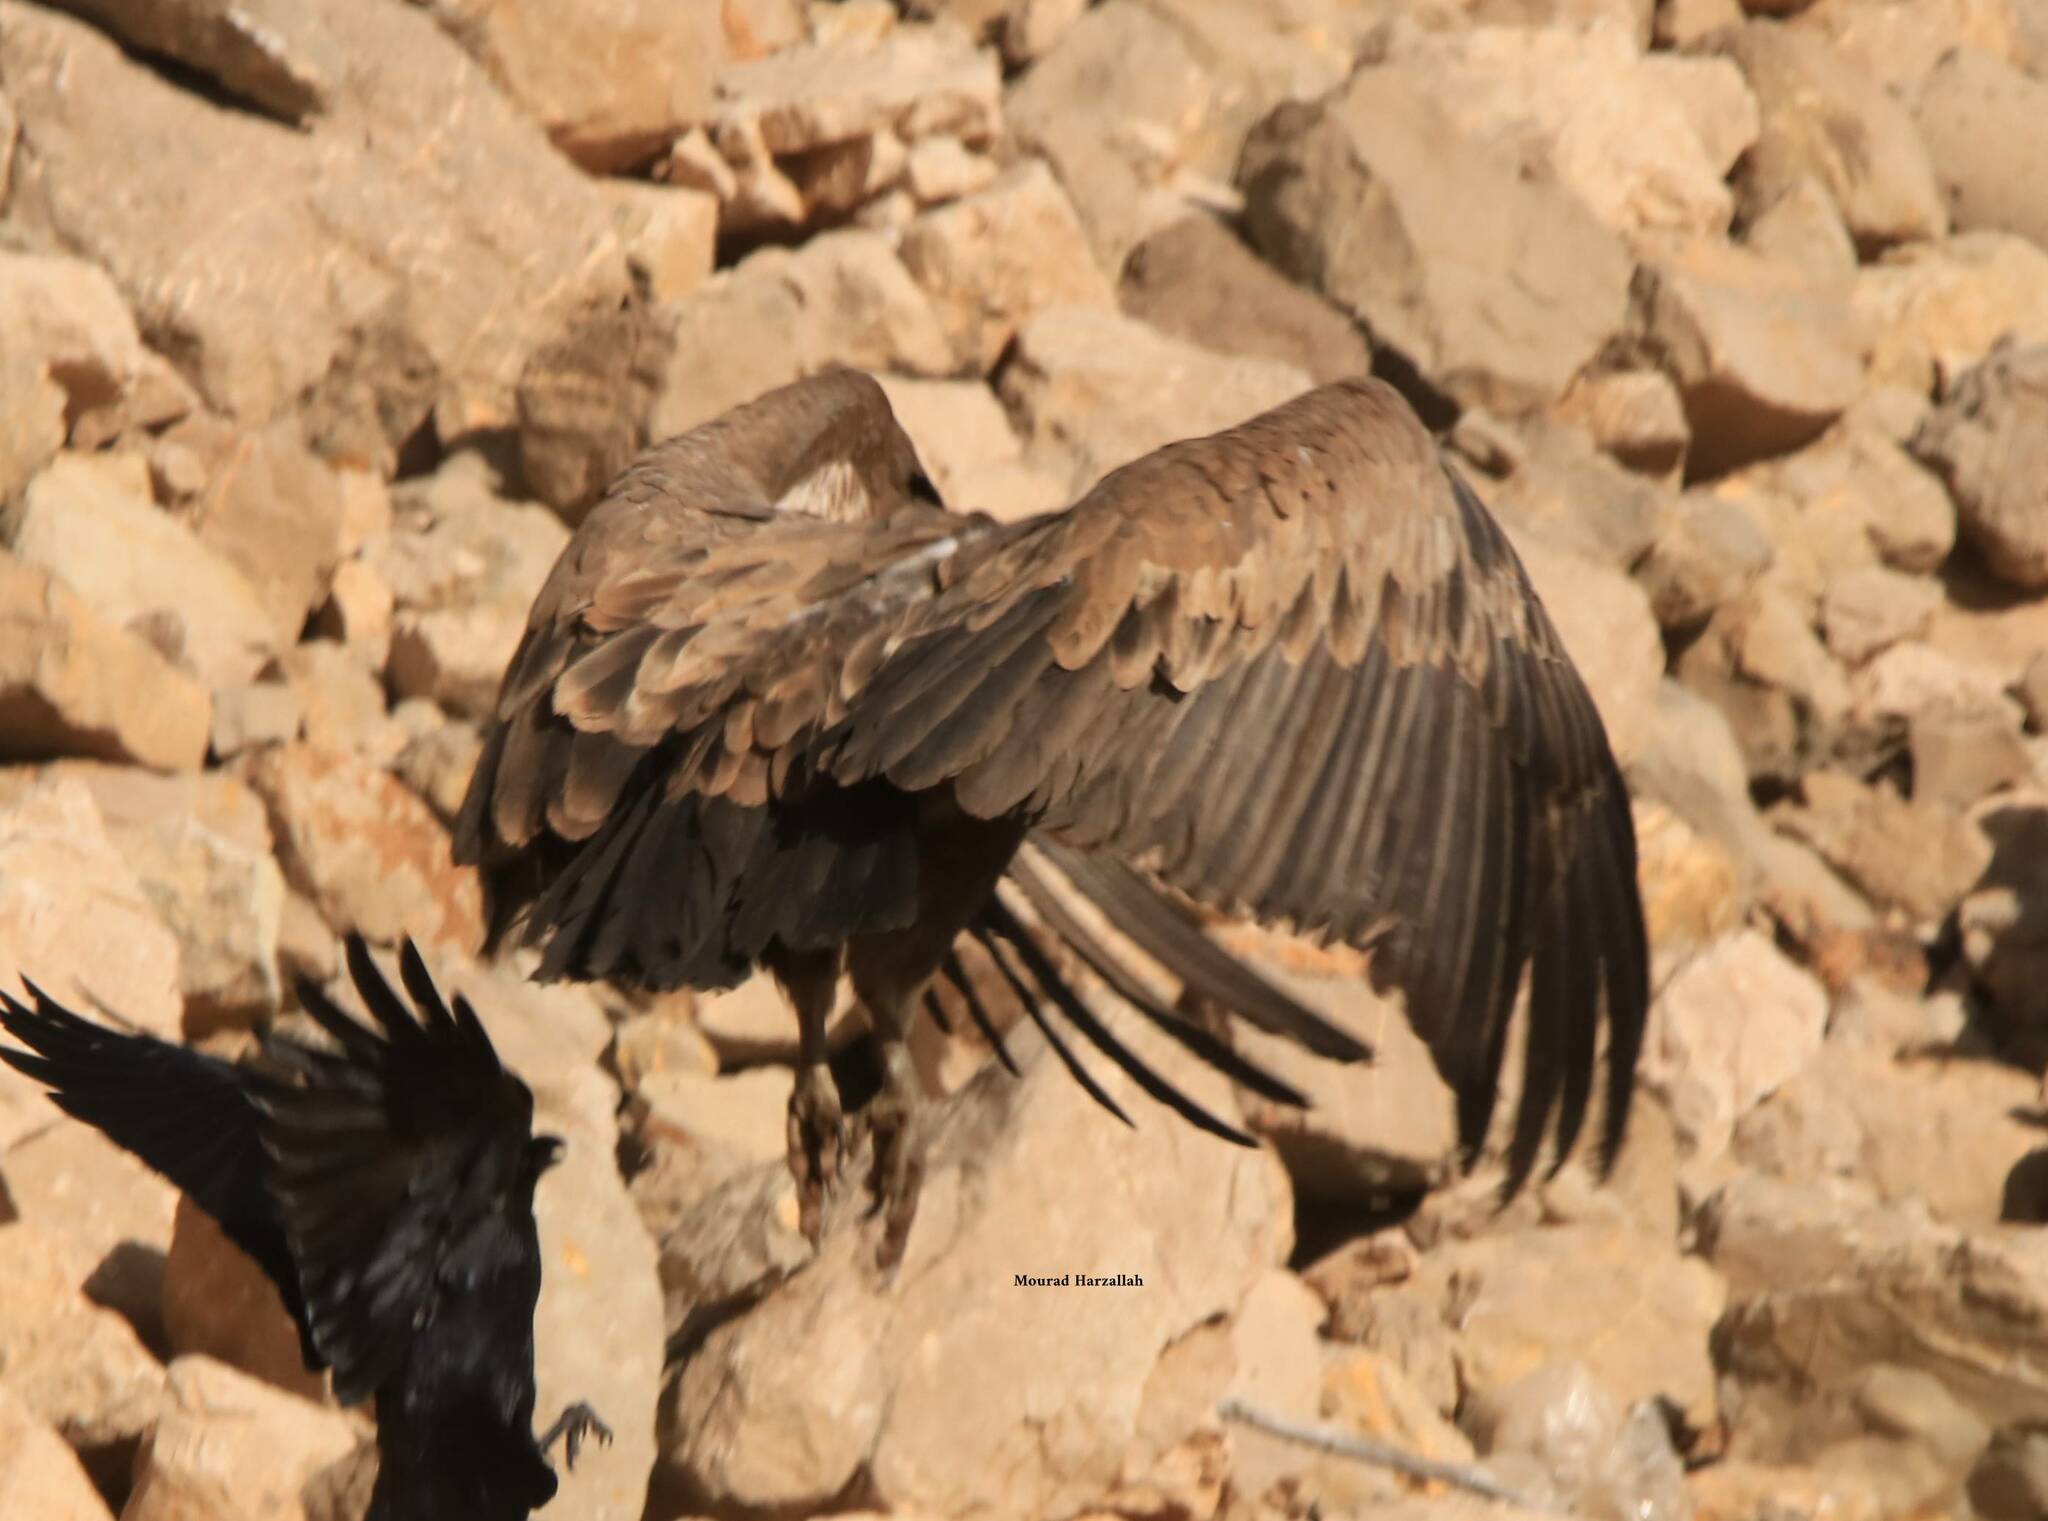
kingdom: Animalia
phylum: Chordata
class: Aves
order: Accipitriformes
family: Accipitridae
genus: Gyps
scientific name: Gyps fulvus
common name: Griffon vulture
